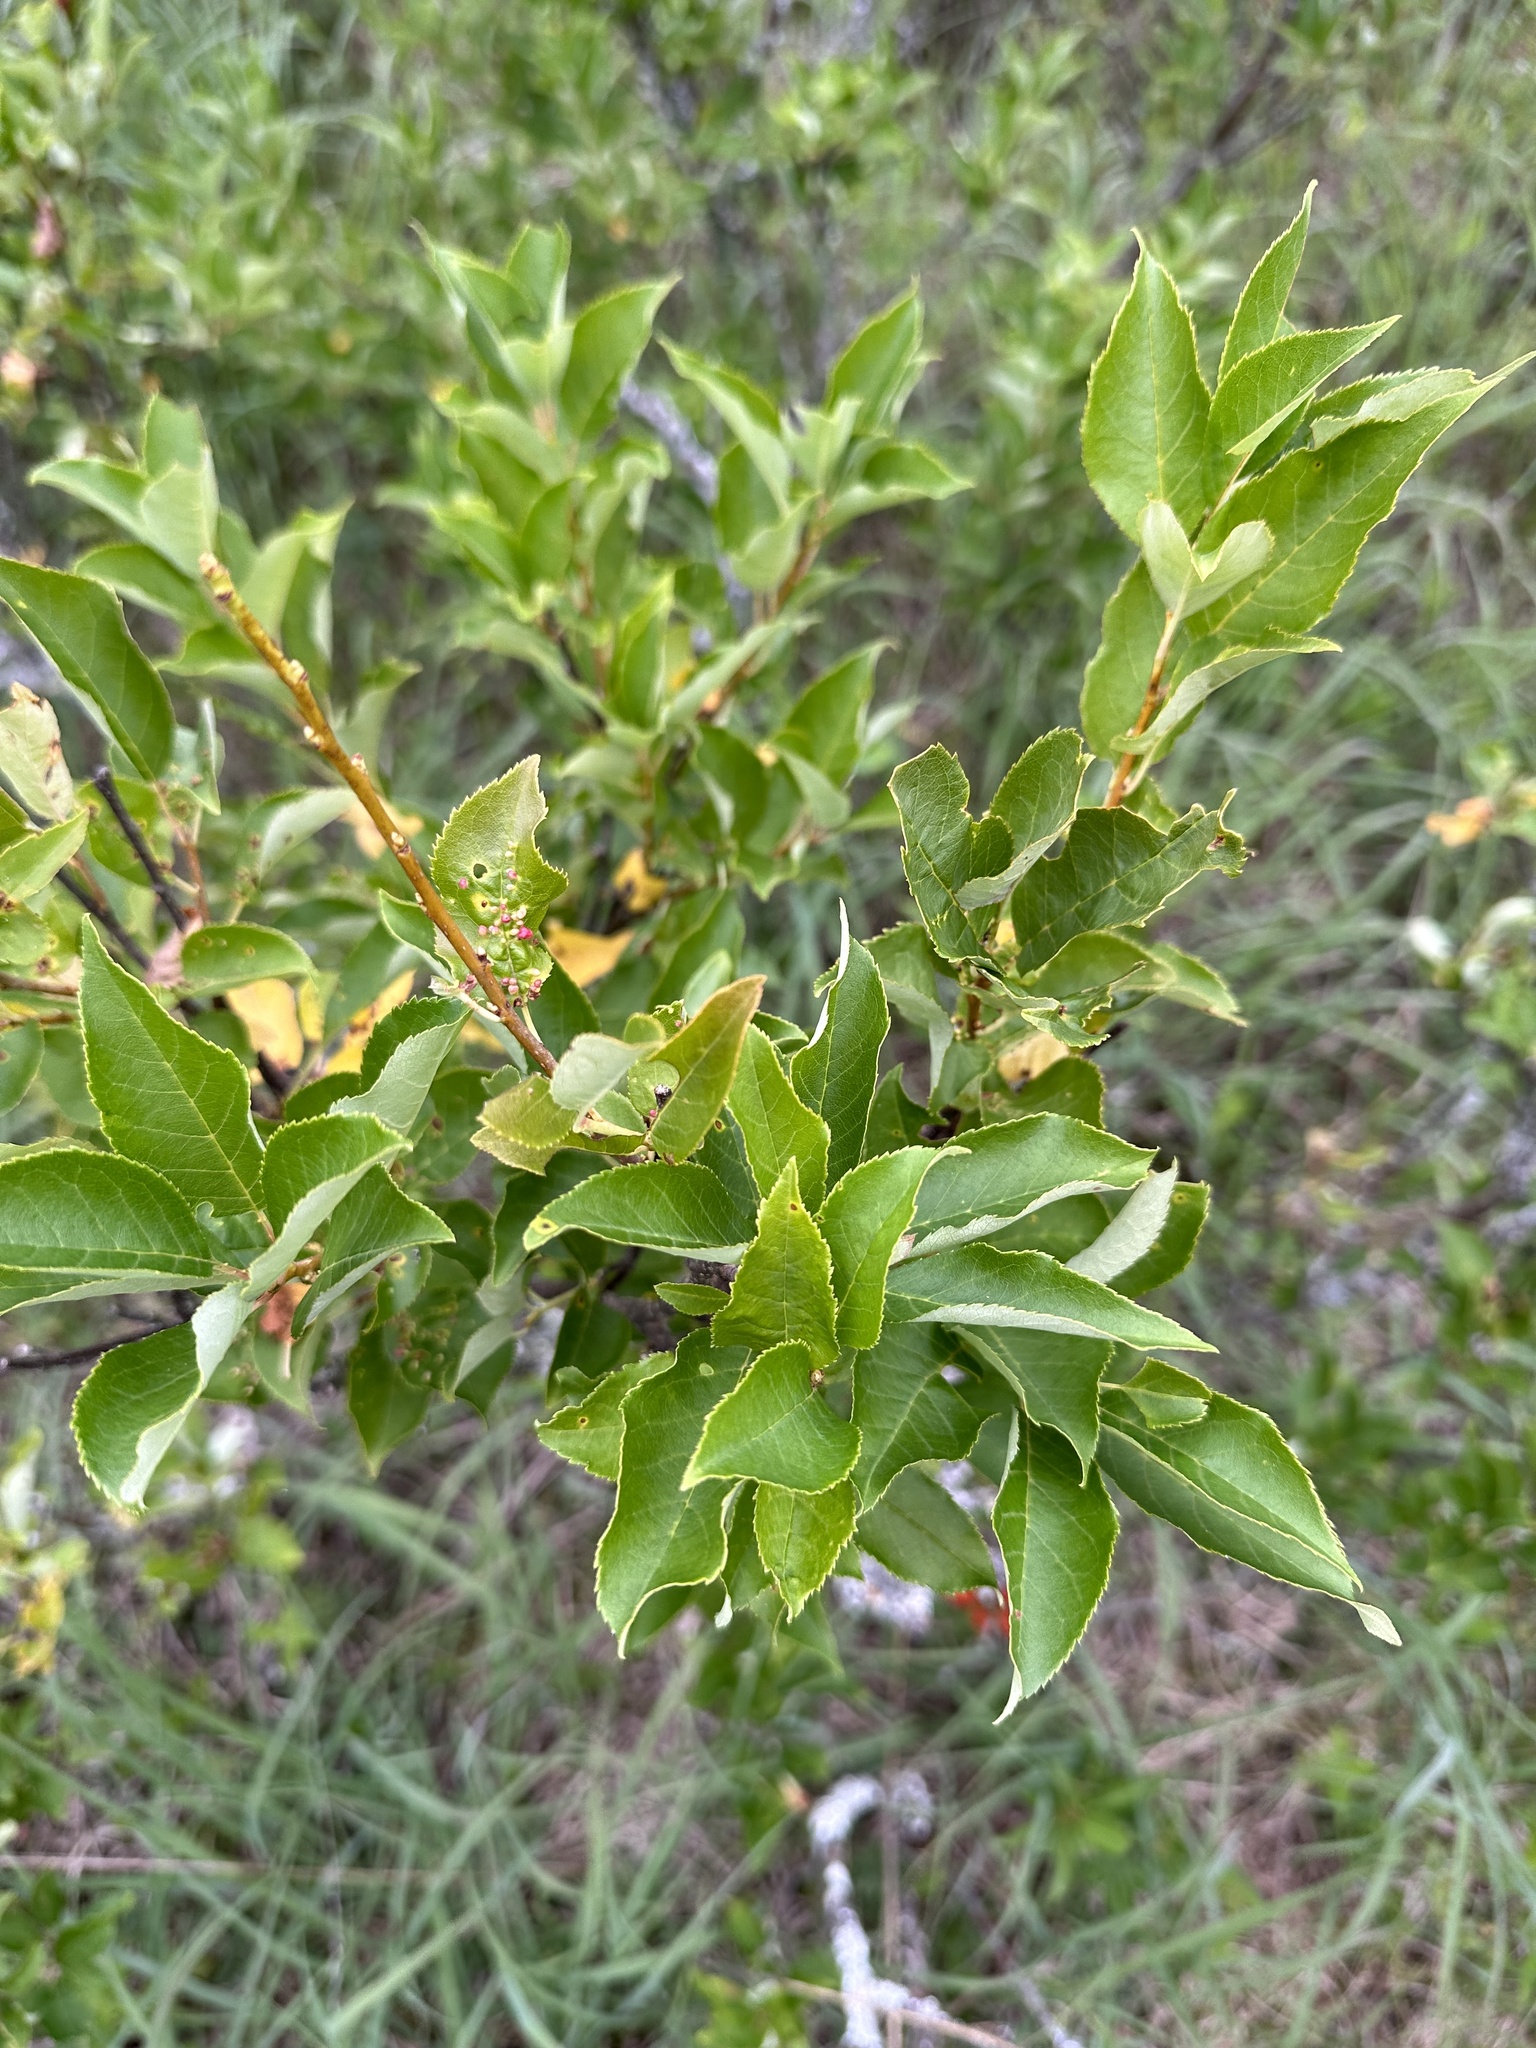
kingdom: Plantae
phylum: Tracheophyta
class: Magnoliopsida
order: Rosales
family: Rosaceae
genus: Prunus
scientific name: Prunus virginiana
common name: Chokecherry
